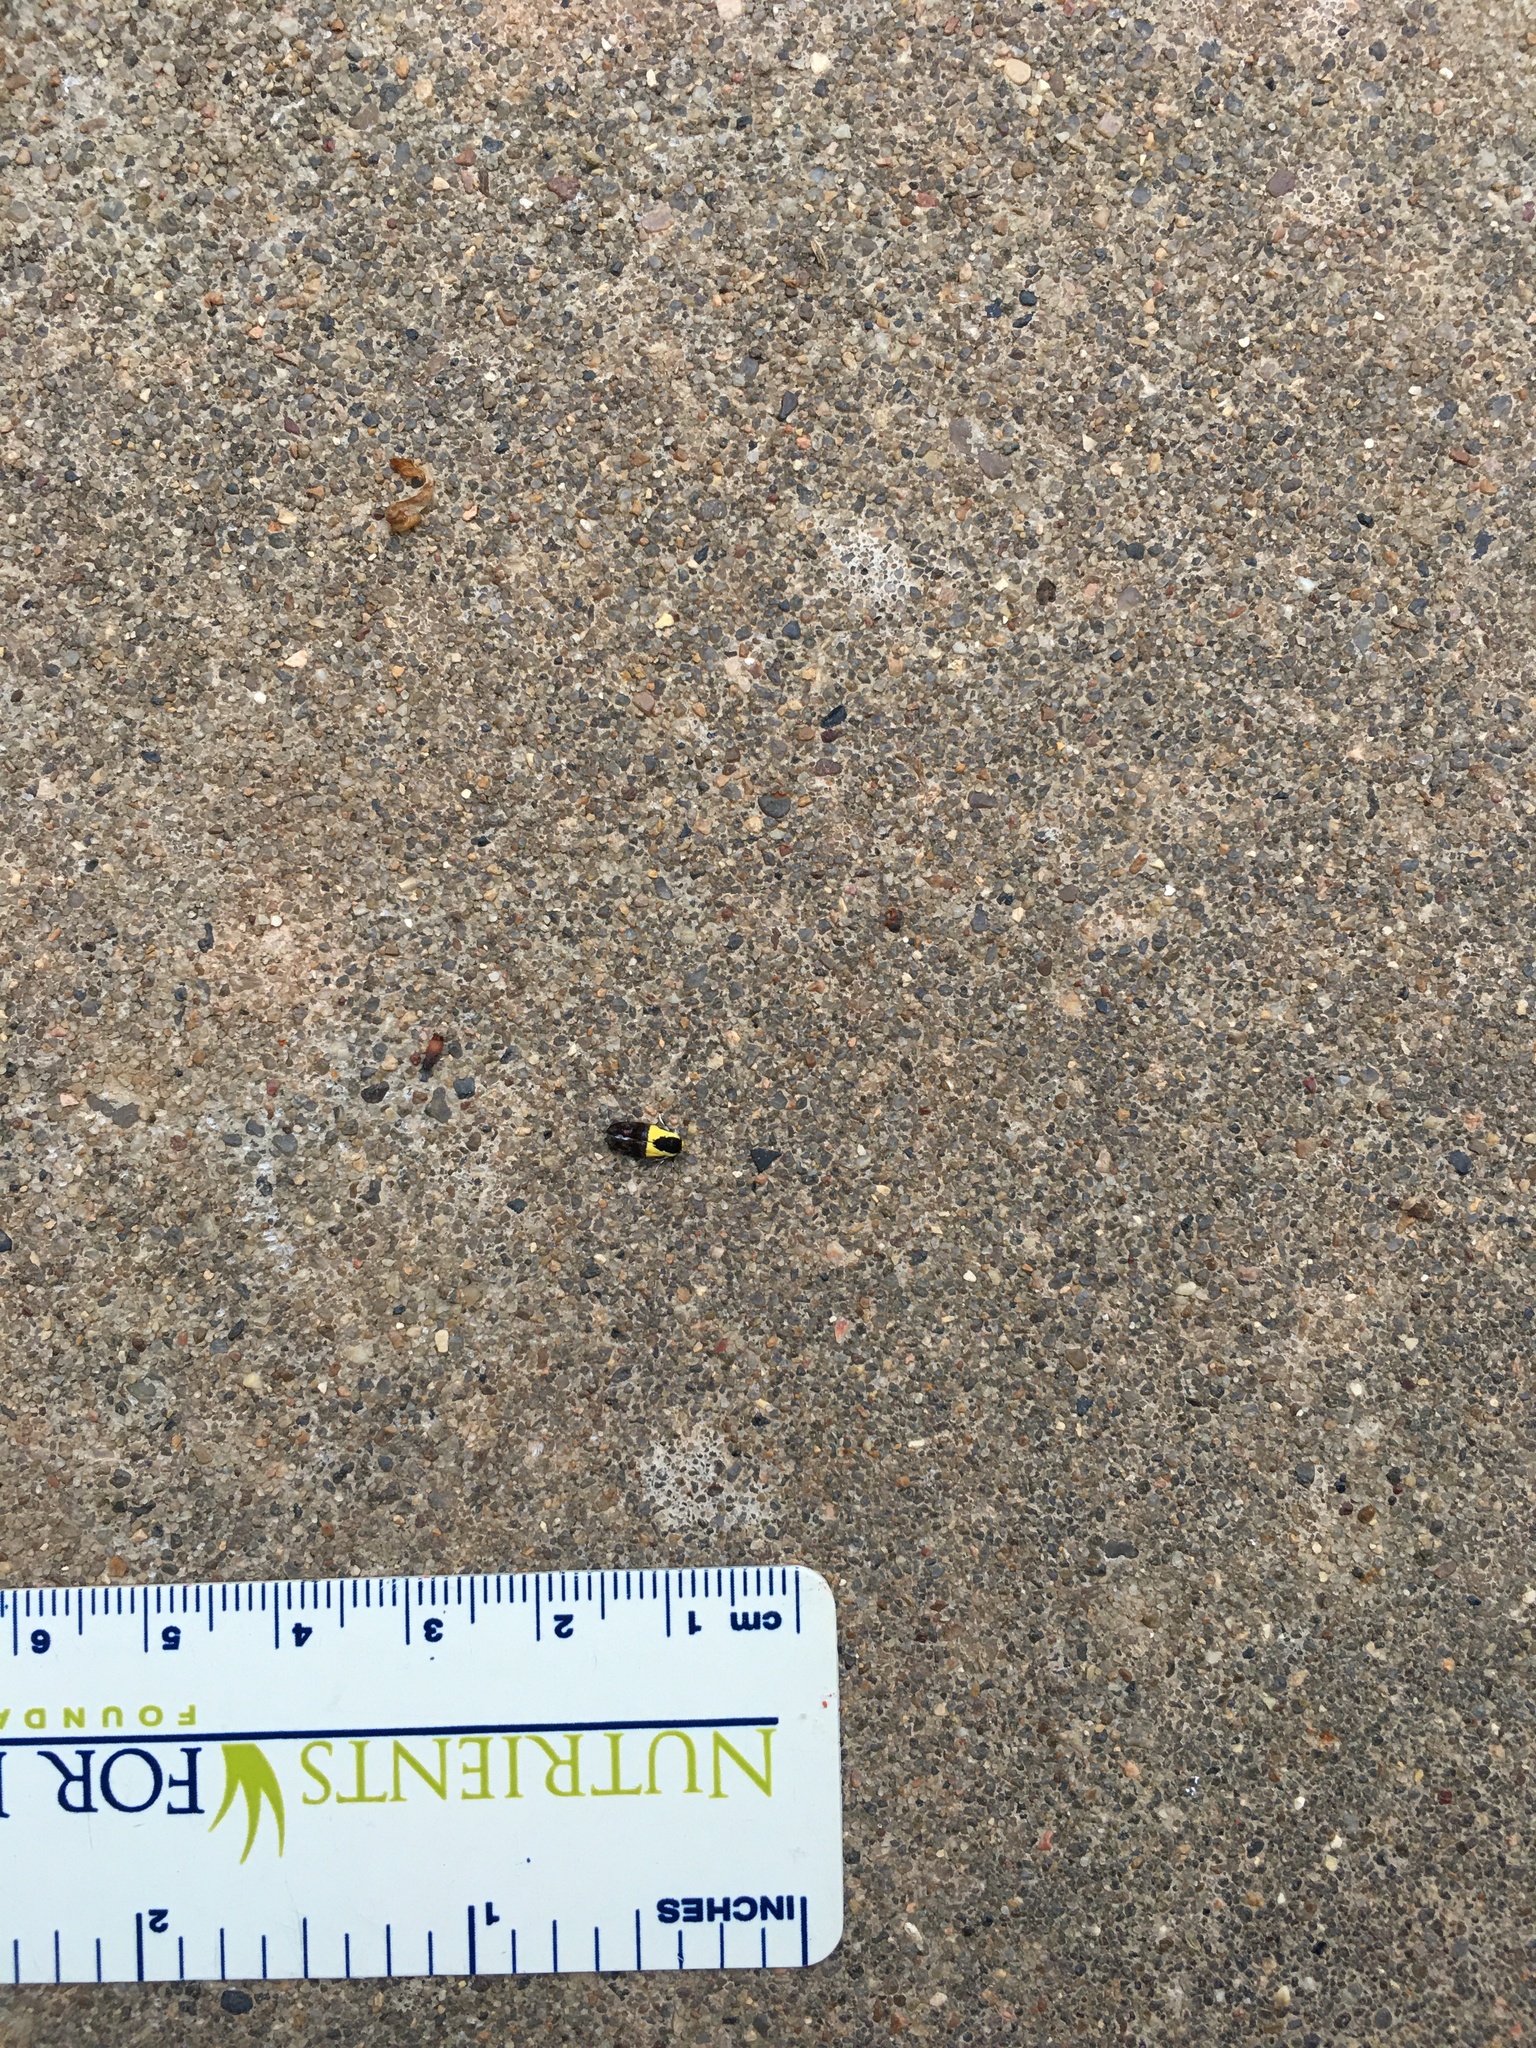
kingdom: Animalia
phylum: Arthropoda
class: Insecta
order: Lepidoptera
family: Depressariidae
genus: Rectiostoma
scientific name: Rectiostoma xanthobasis
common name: Yellow-vested moth
